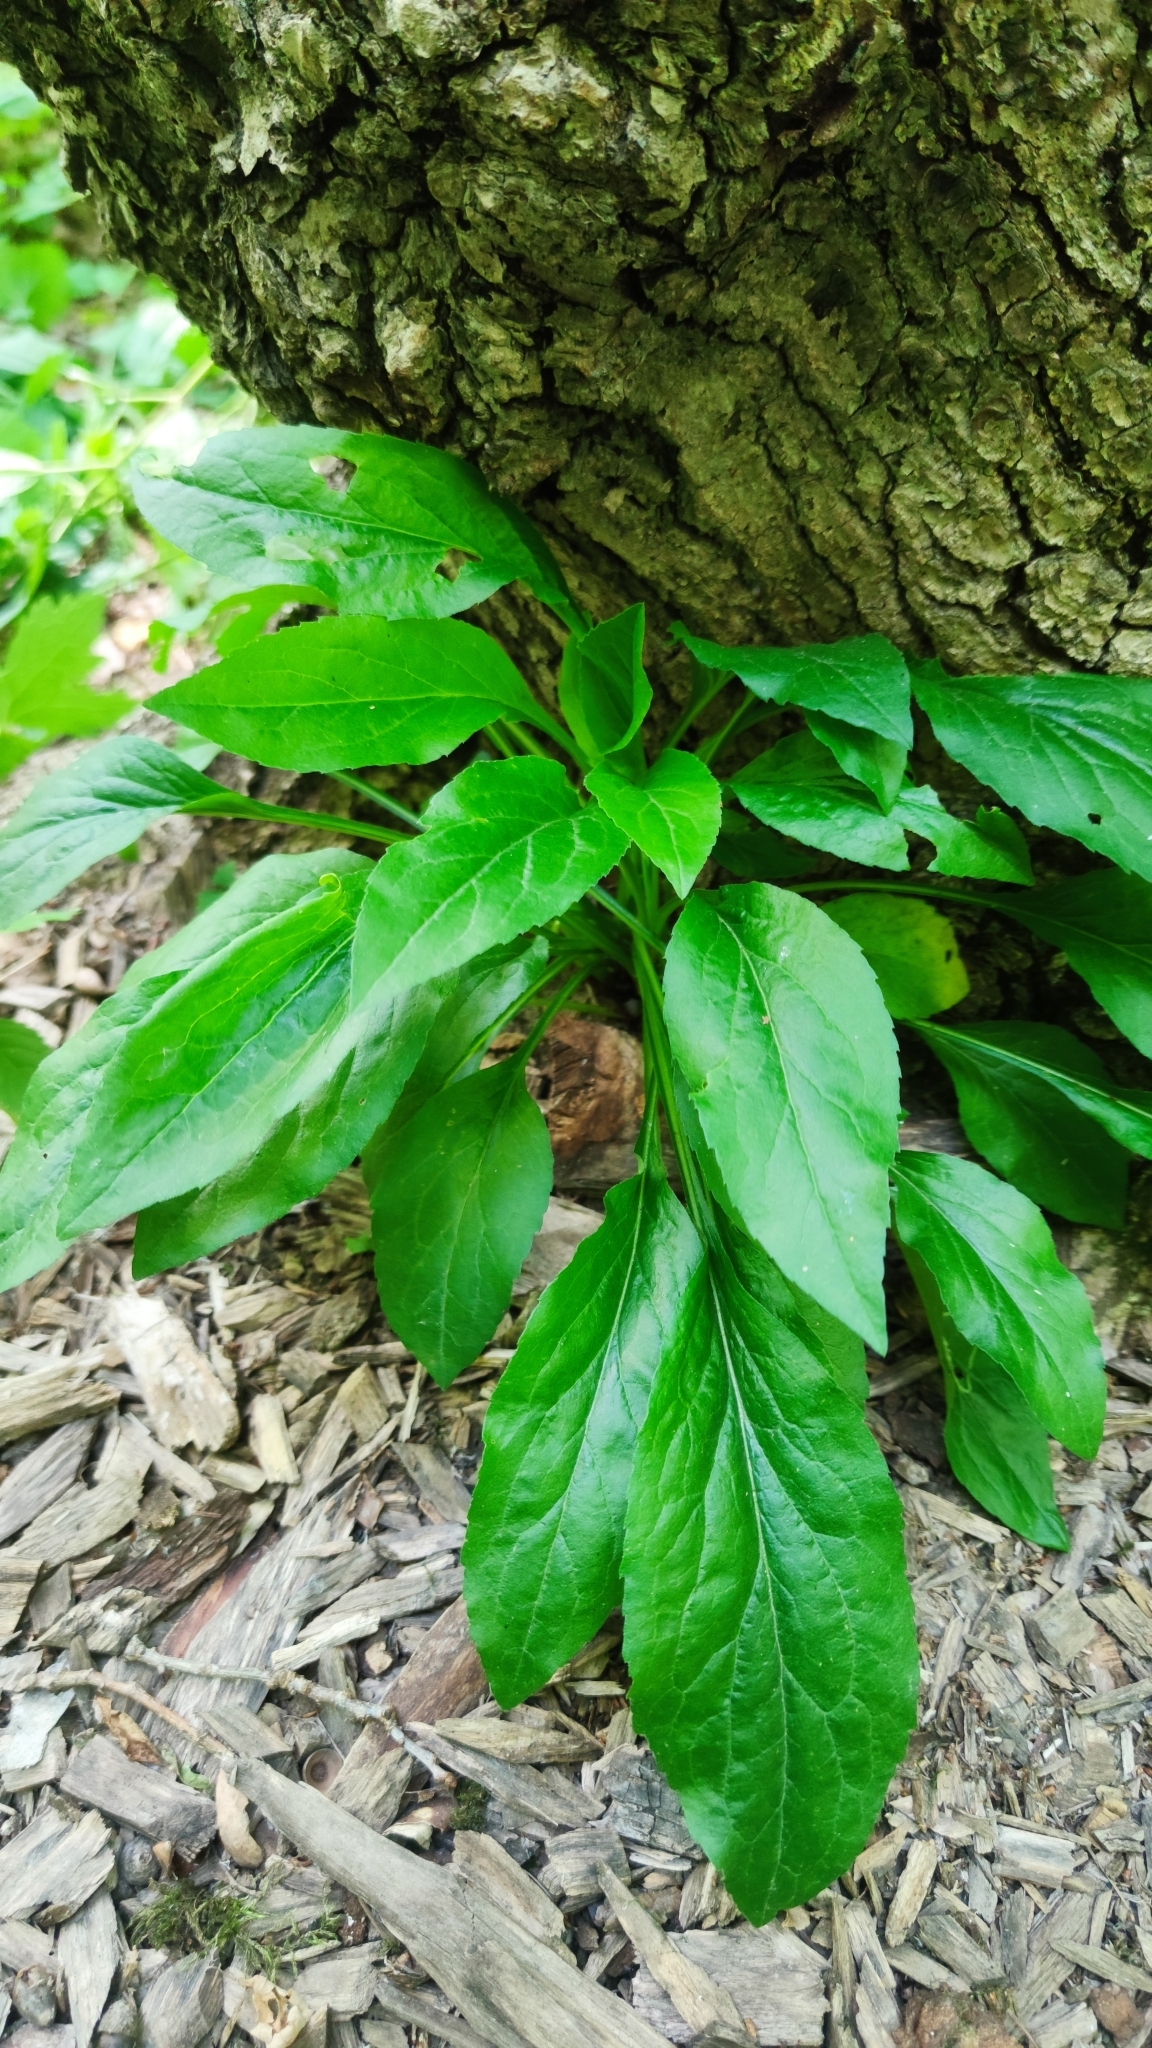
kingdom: Plantae
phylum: Tracheophyta
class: Magnoliopsida
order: Asterales
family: Asteraceae
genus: Solidago
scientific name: Solidago virgaurea
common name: Goldenrod
